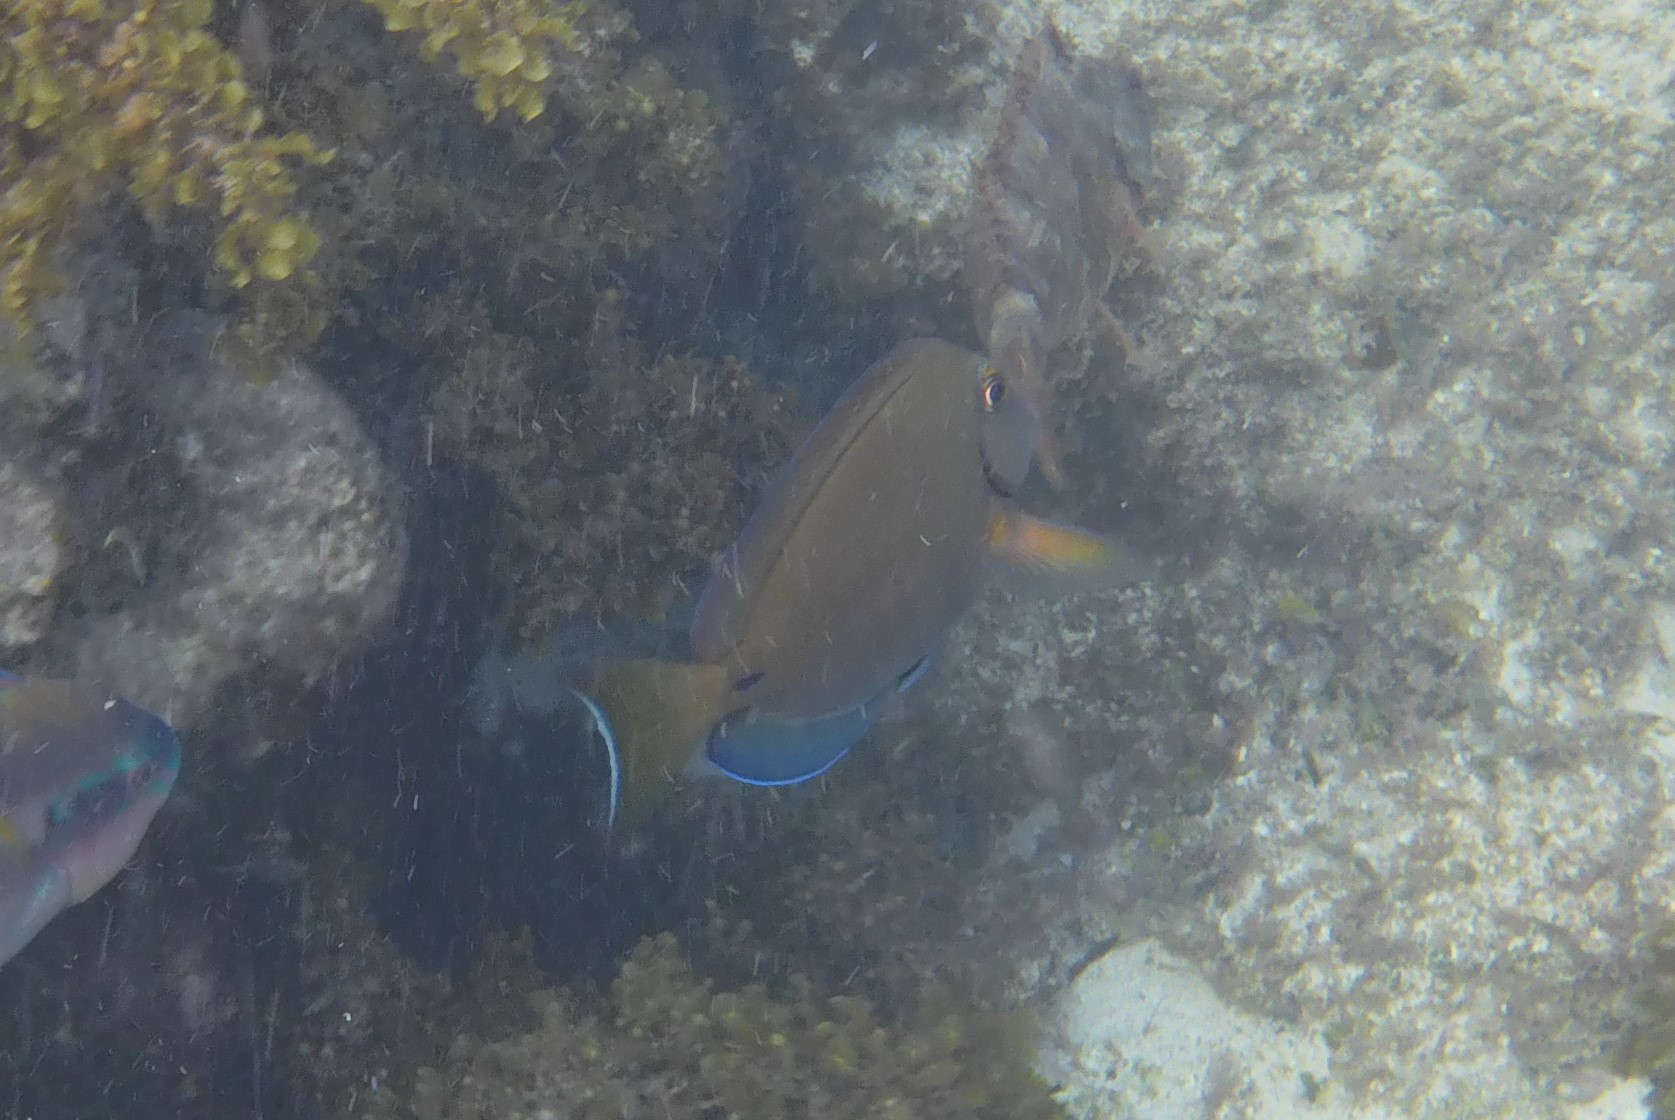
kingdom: Animalia
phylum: Chordata
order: Perciformes
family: Acanthuridae
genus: Acanthurus
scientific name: Acanthurus bahianus
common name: Ocean surgeon
